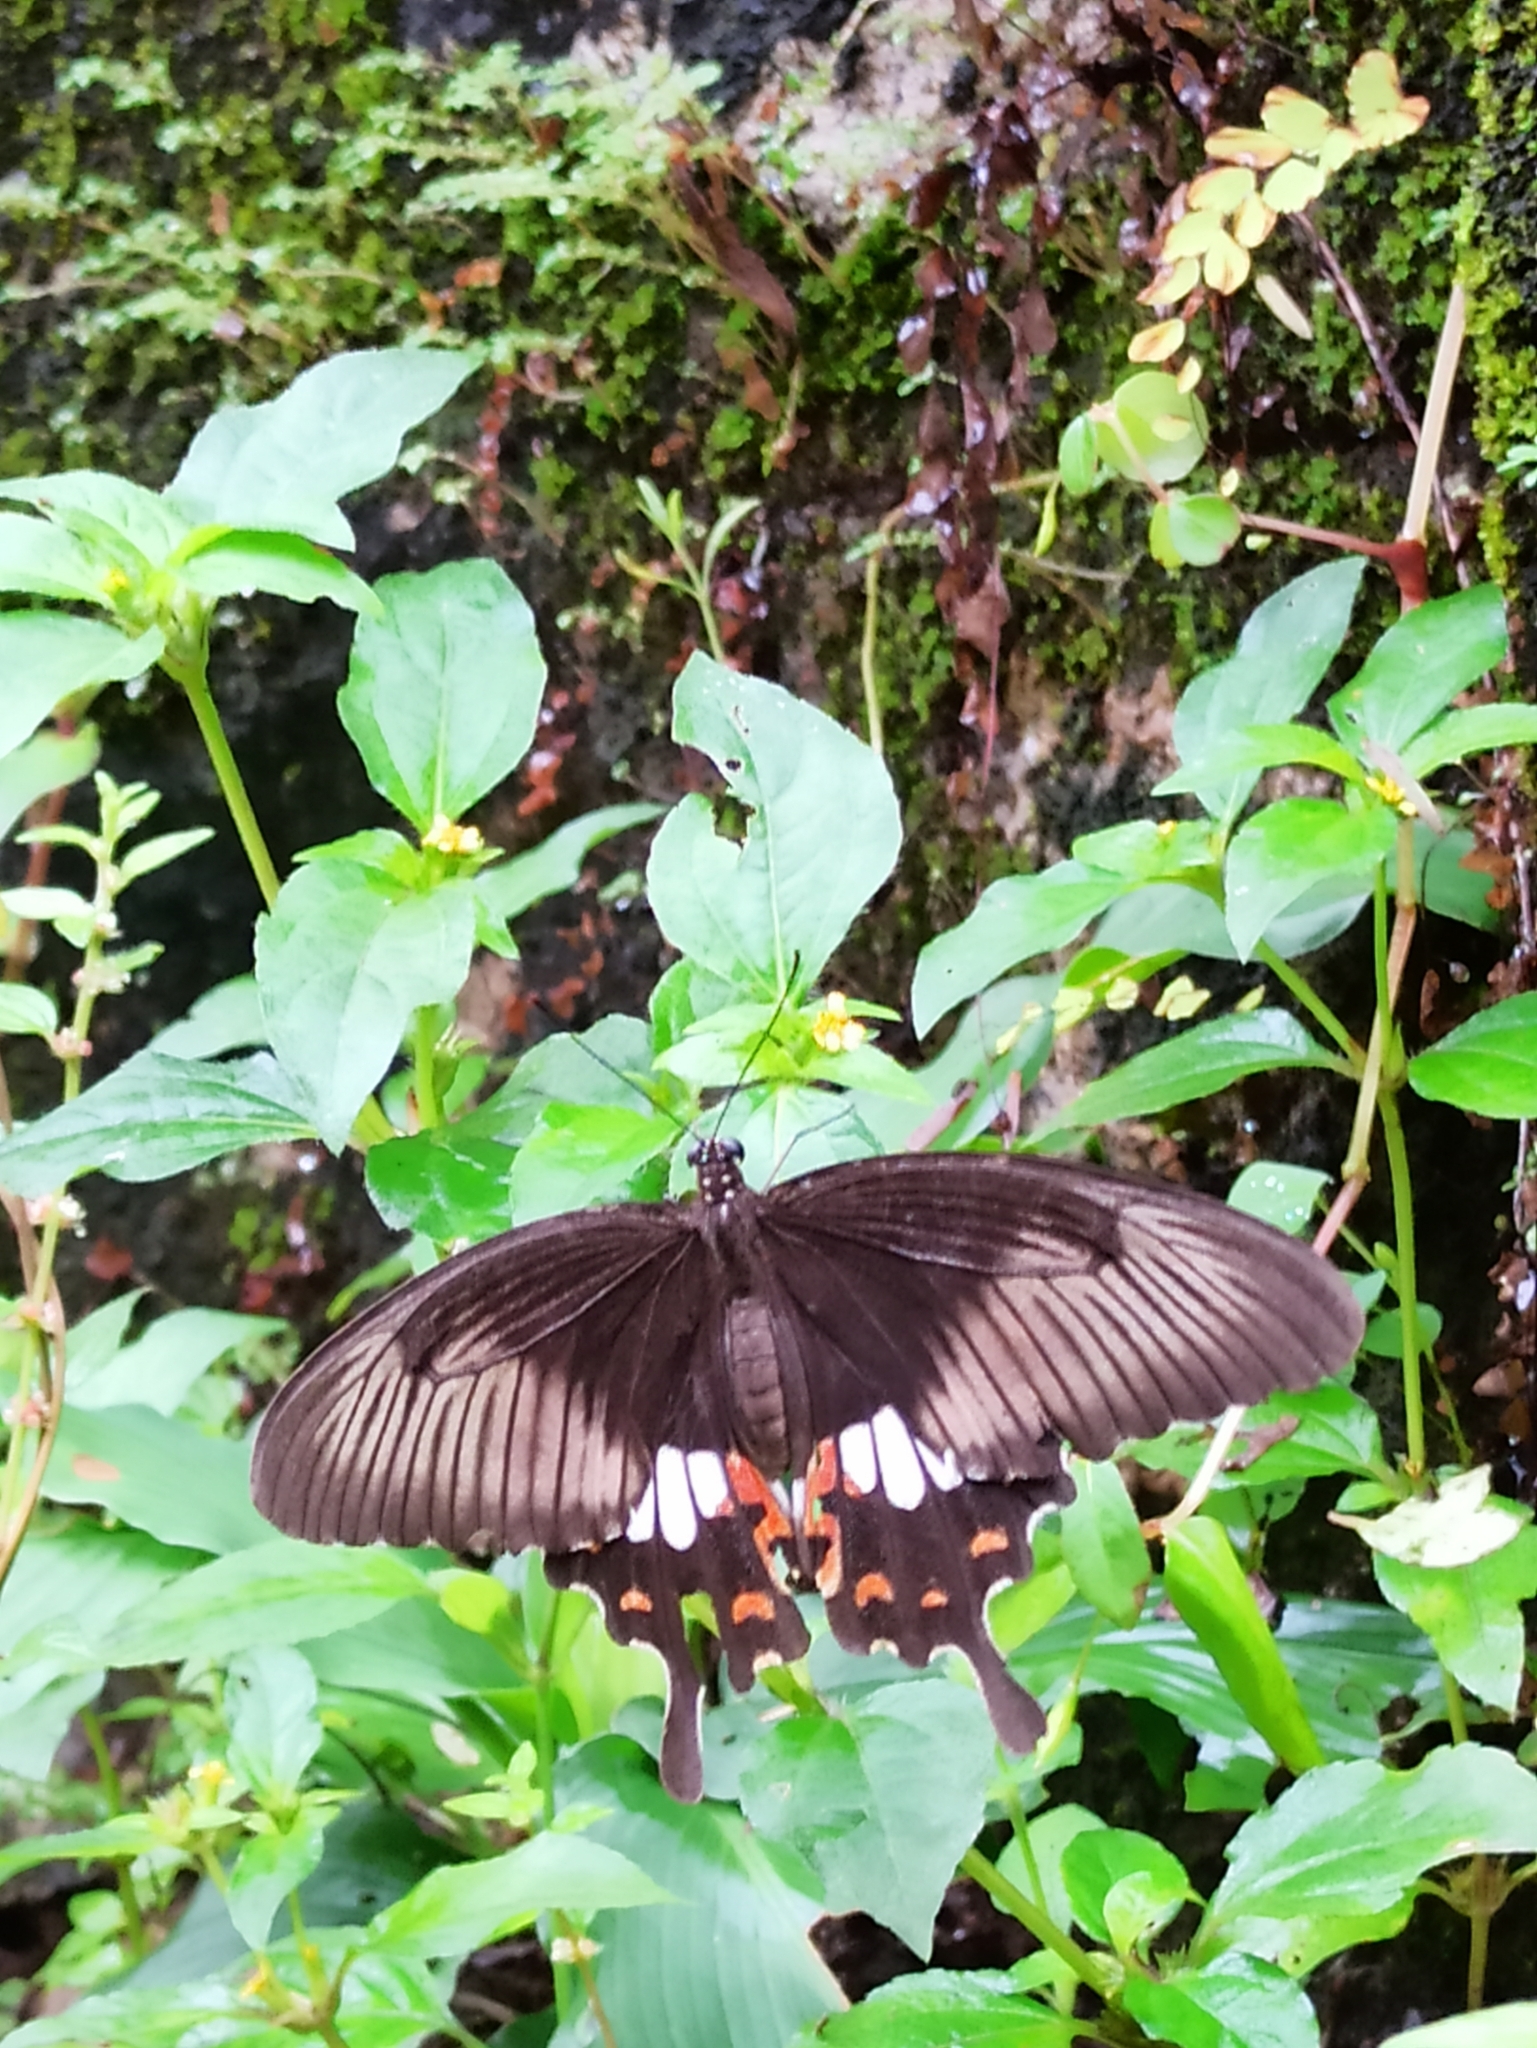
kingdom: Animalia
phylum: Arthropoda
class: Insecta
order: Lepidoptera
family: Papilionidae
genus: Papilio
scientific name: Papilio polytes
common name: Common mormon
